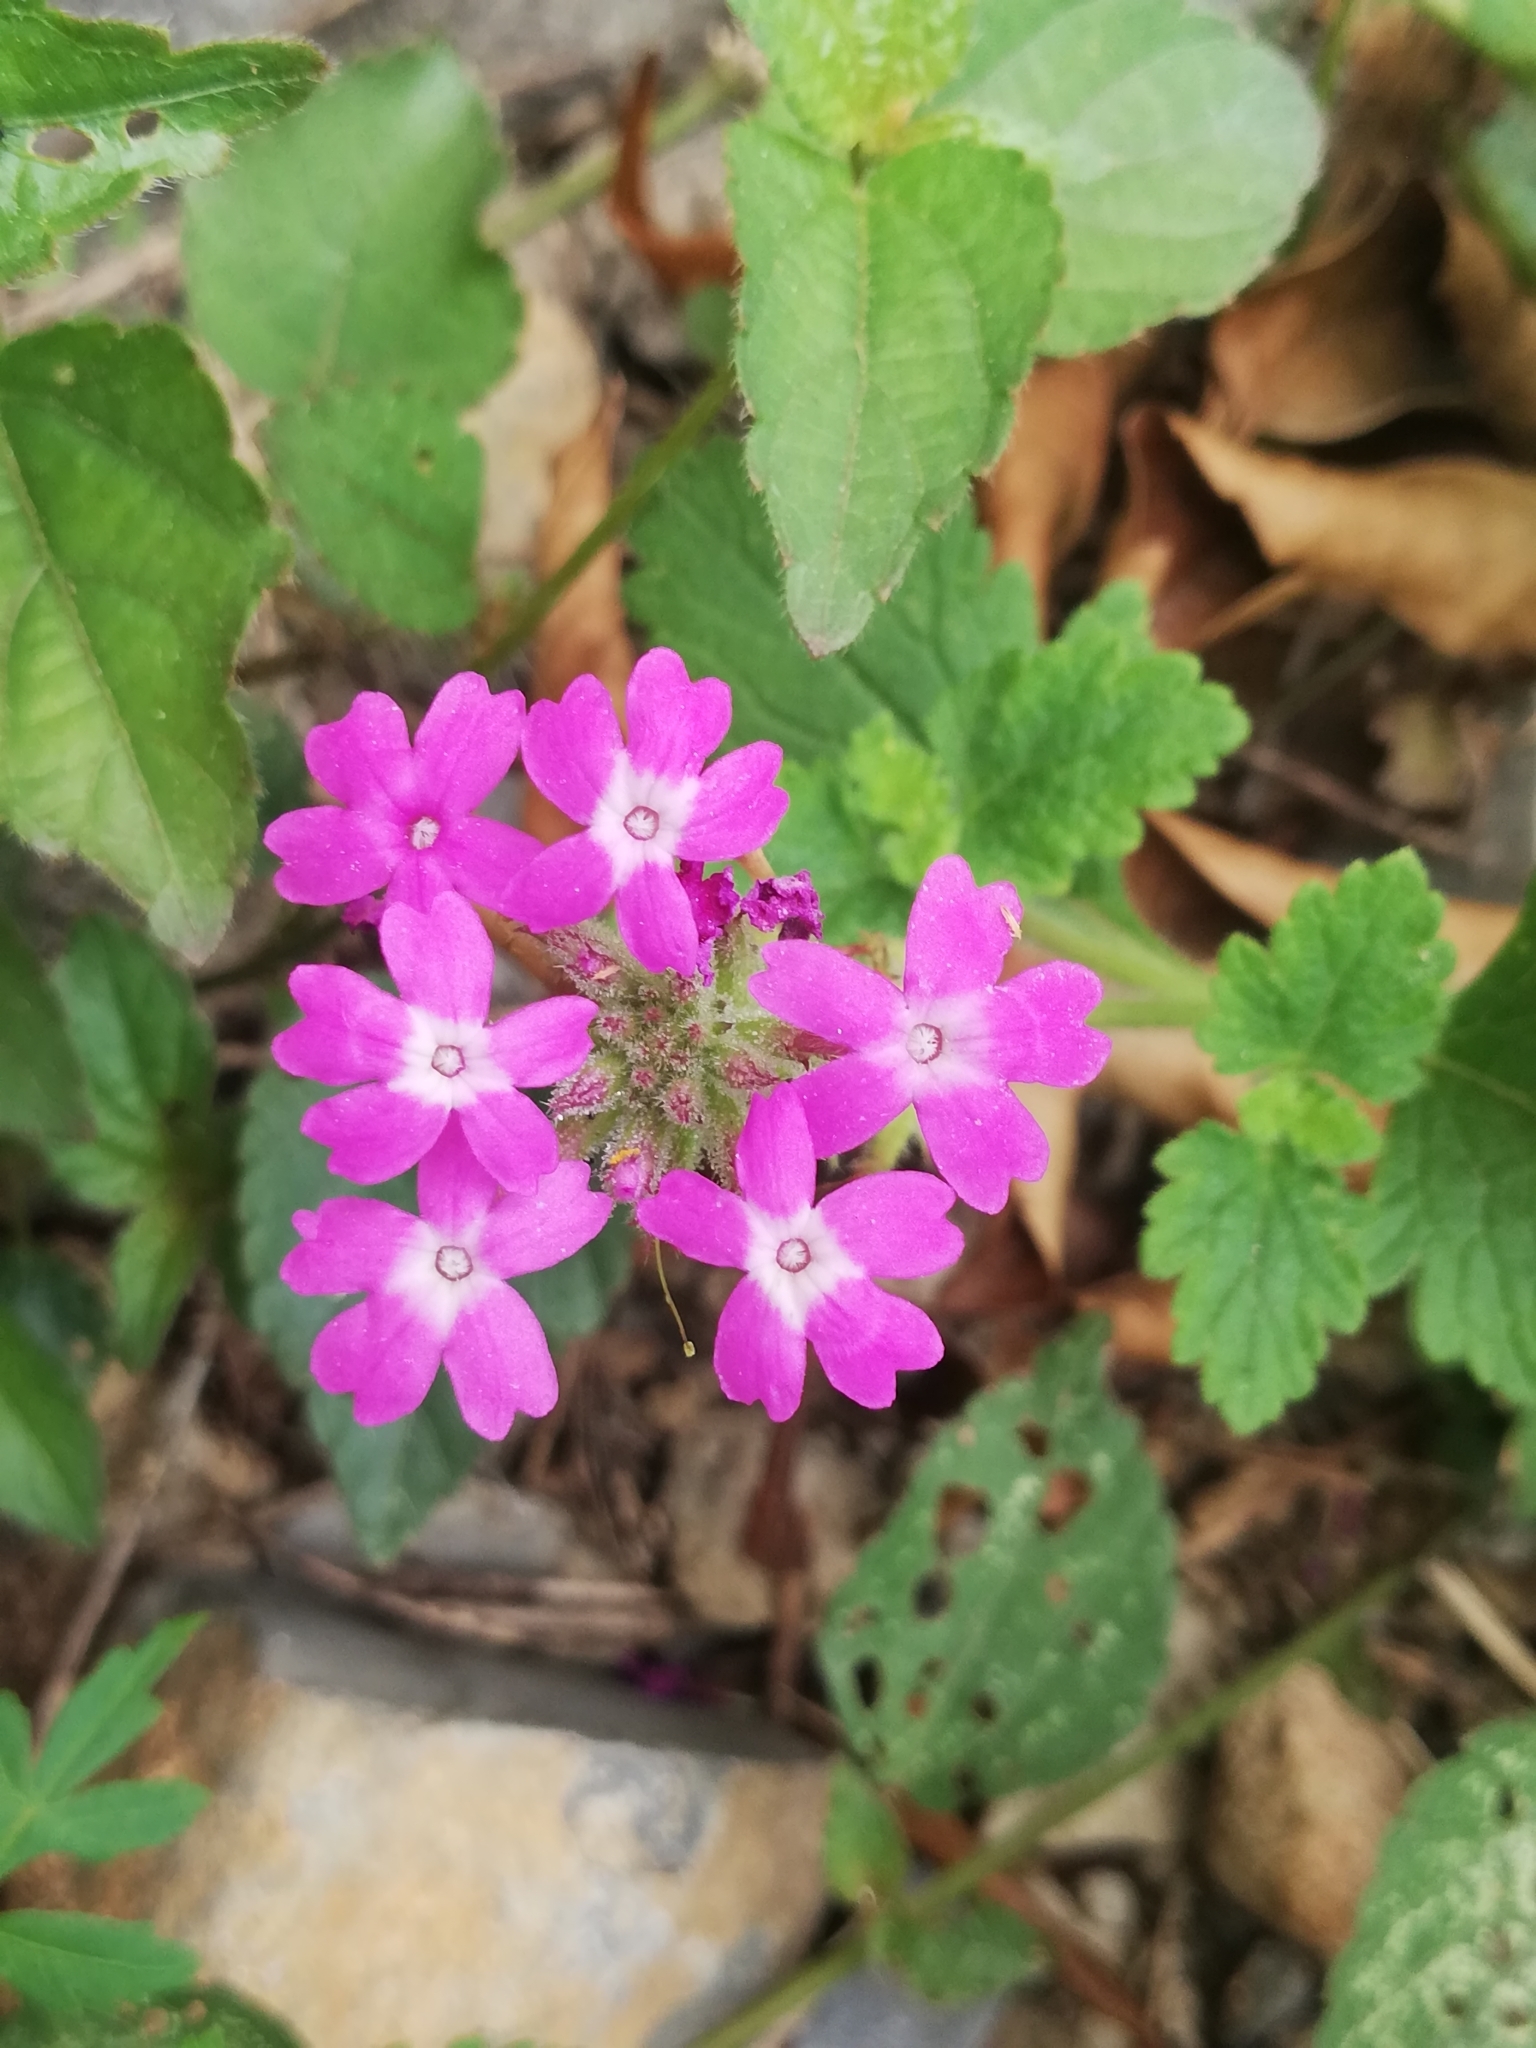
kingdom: Plantae
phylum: Tracheophyta
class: Magnoliopsida
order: Lamiales
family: Verbenaceae
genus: Verbena
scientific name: Verbena canadensis
